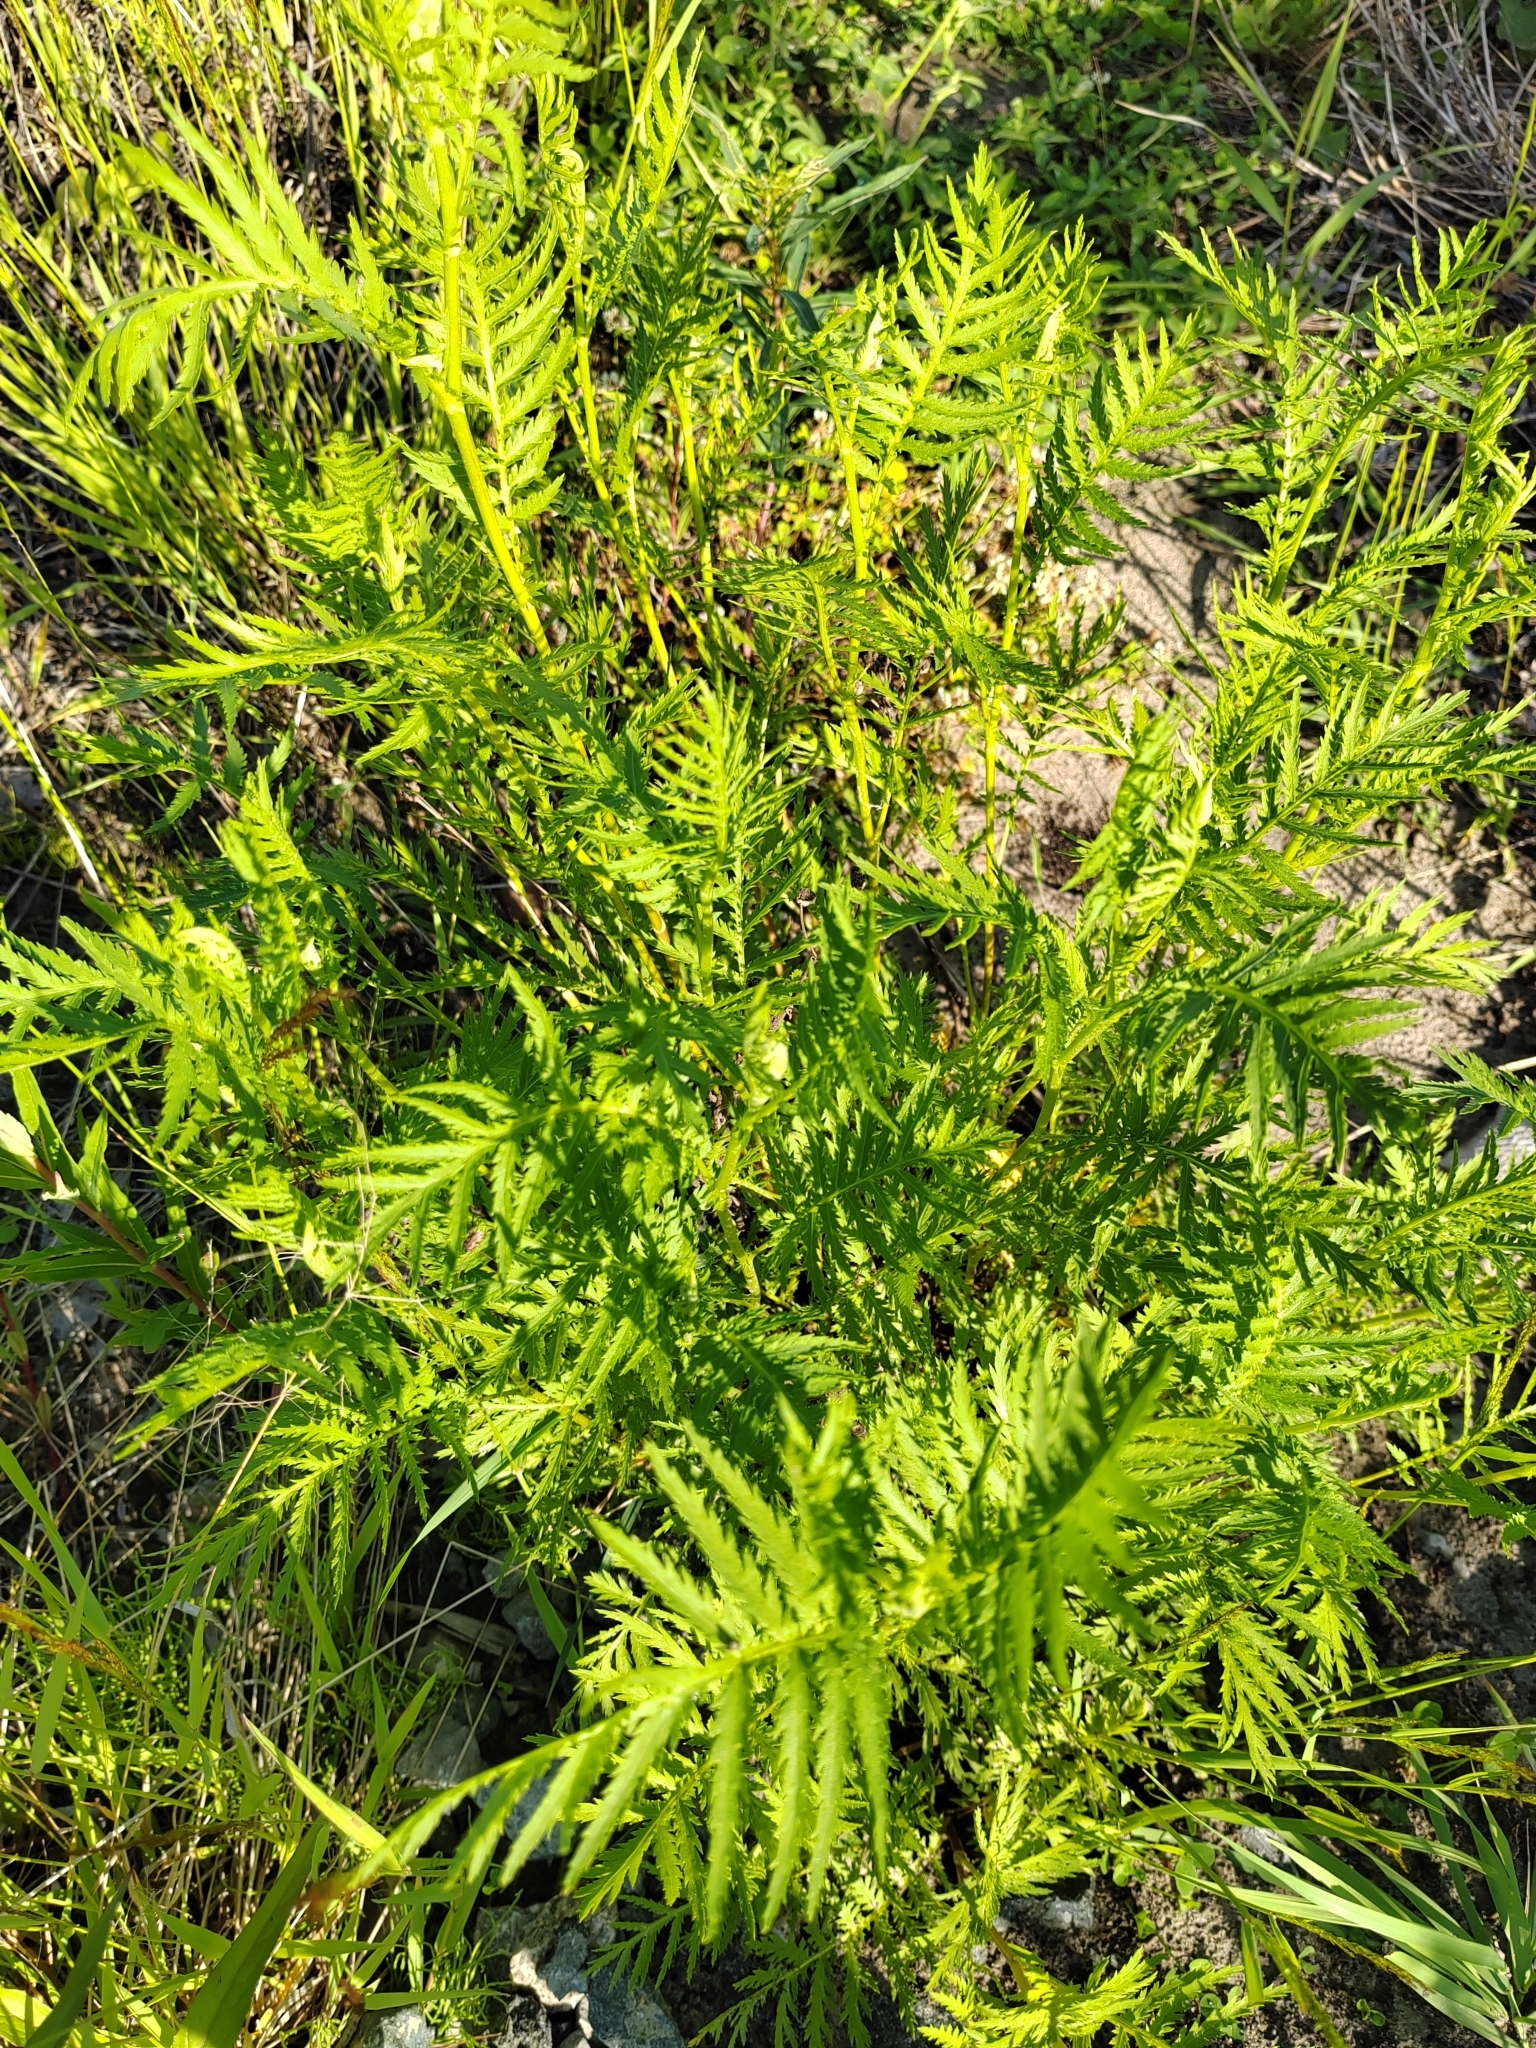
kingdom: Plantae
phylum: Tracheophyta
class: Magnoliopsida
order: Asterales
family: Asteraceae
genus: Tanacetum
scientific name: Tanacetum vulgare
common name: Common tansy
